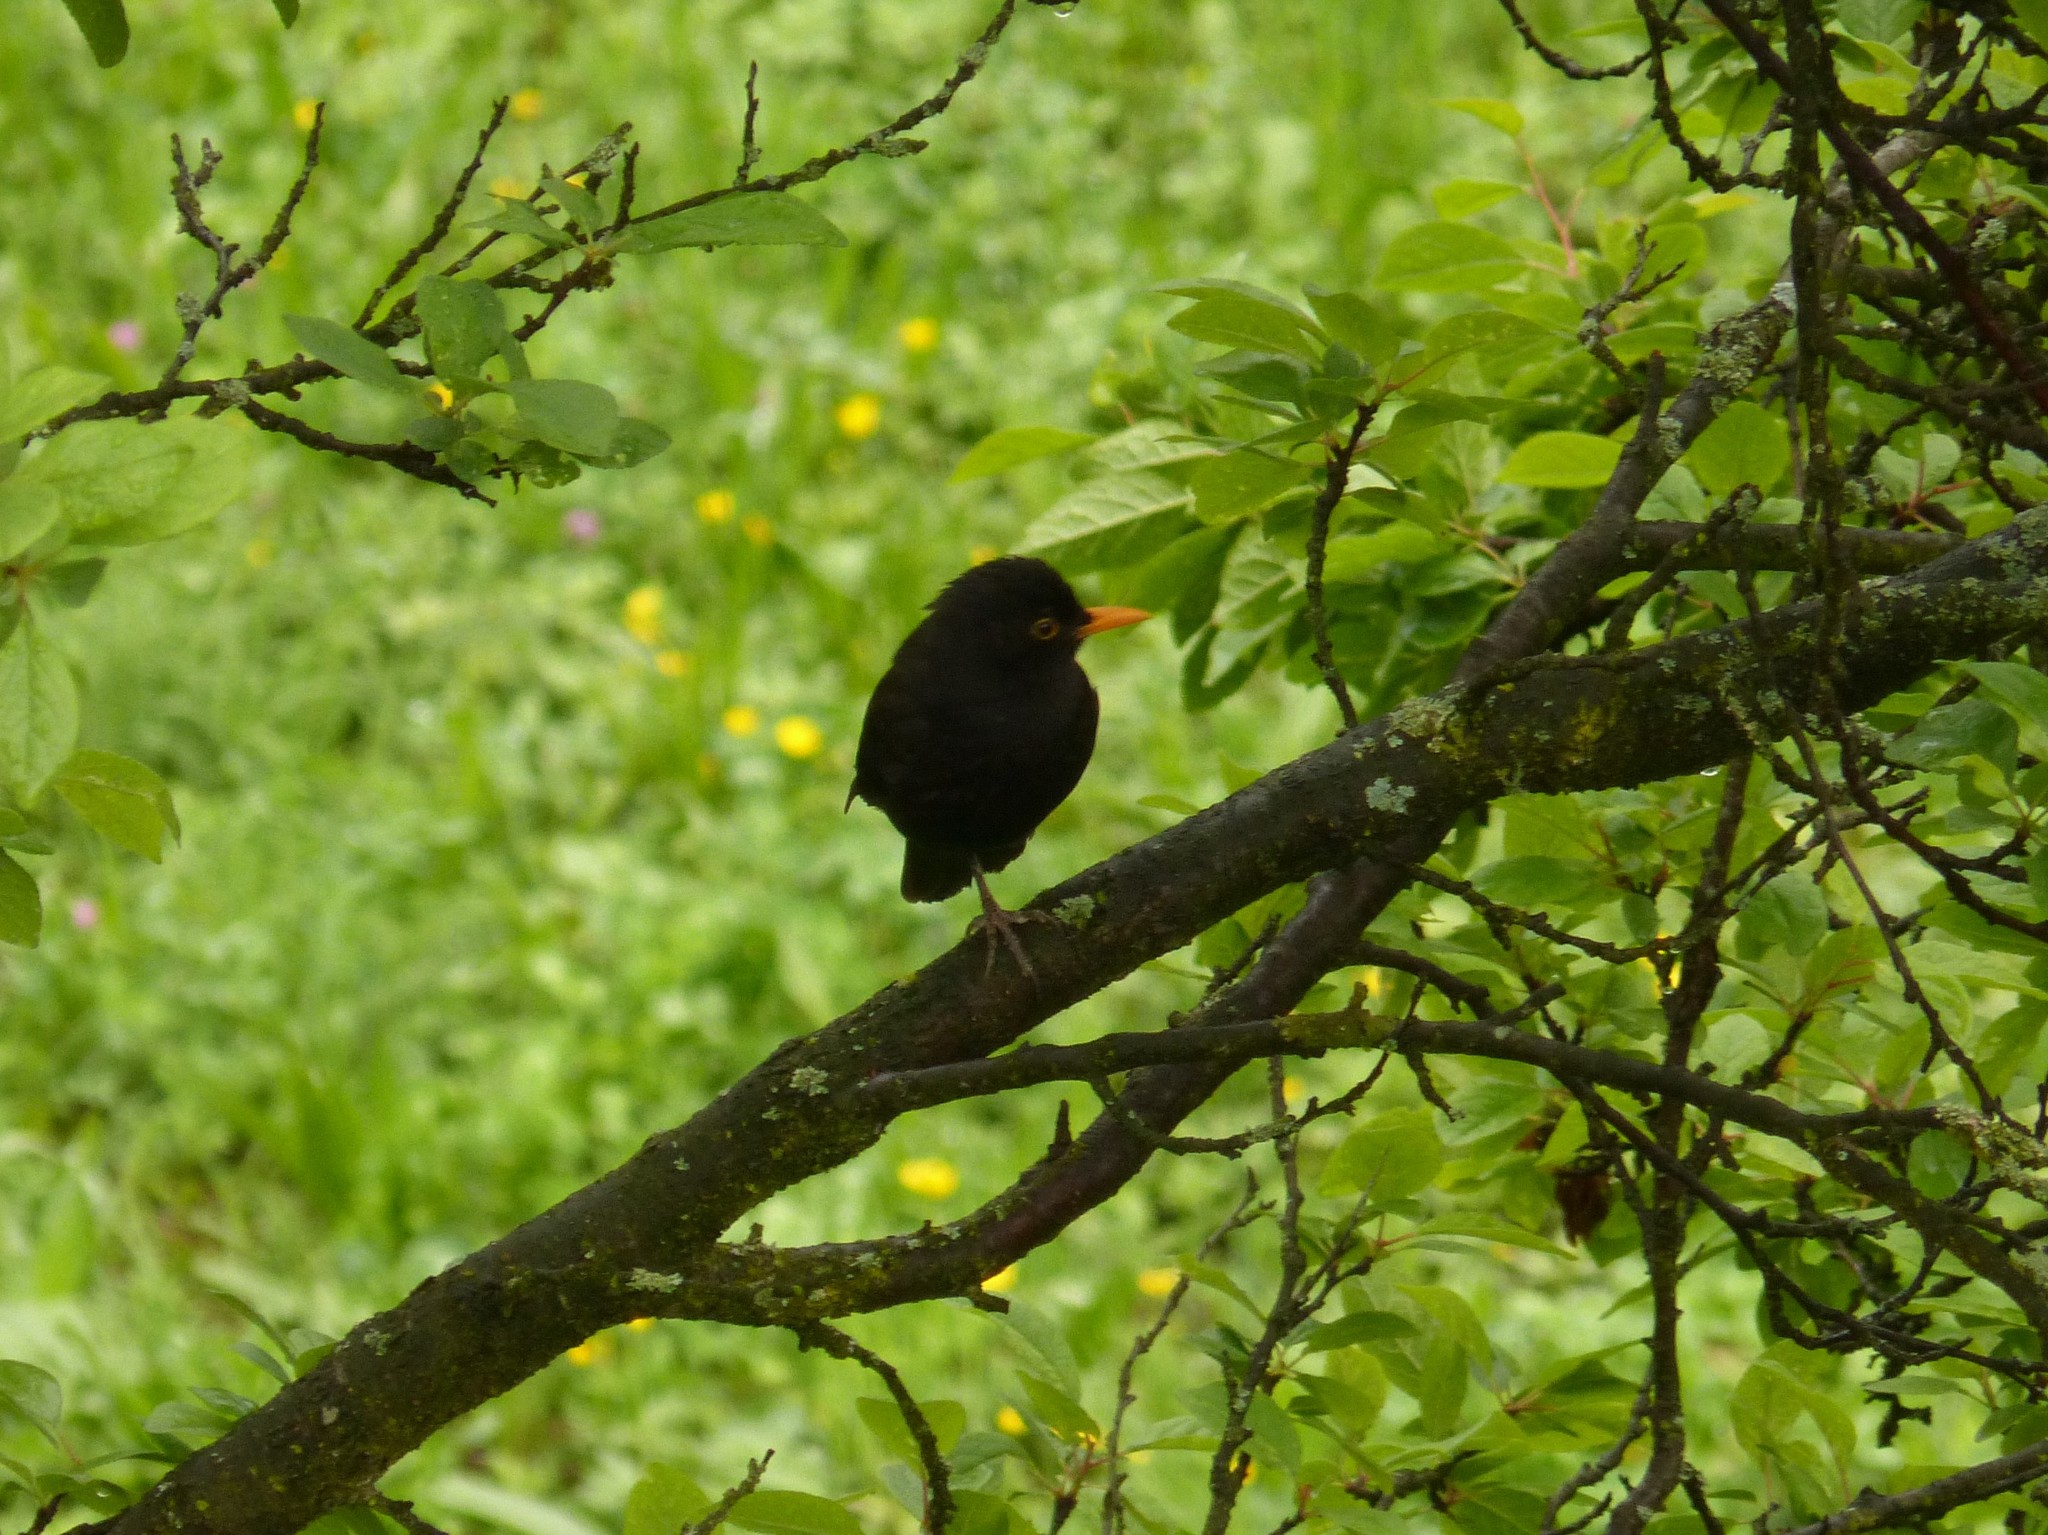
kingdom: Animalia
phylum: Chordata
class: Aves
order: Passeriformes
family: Turdidae
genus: Turdus
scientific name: Turdus merula
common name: Common blackbird
